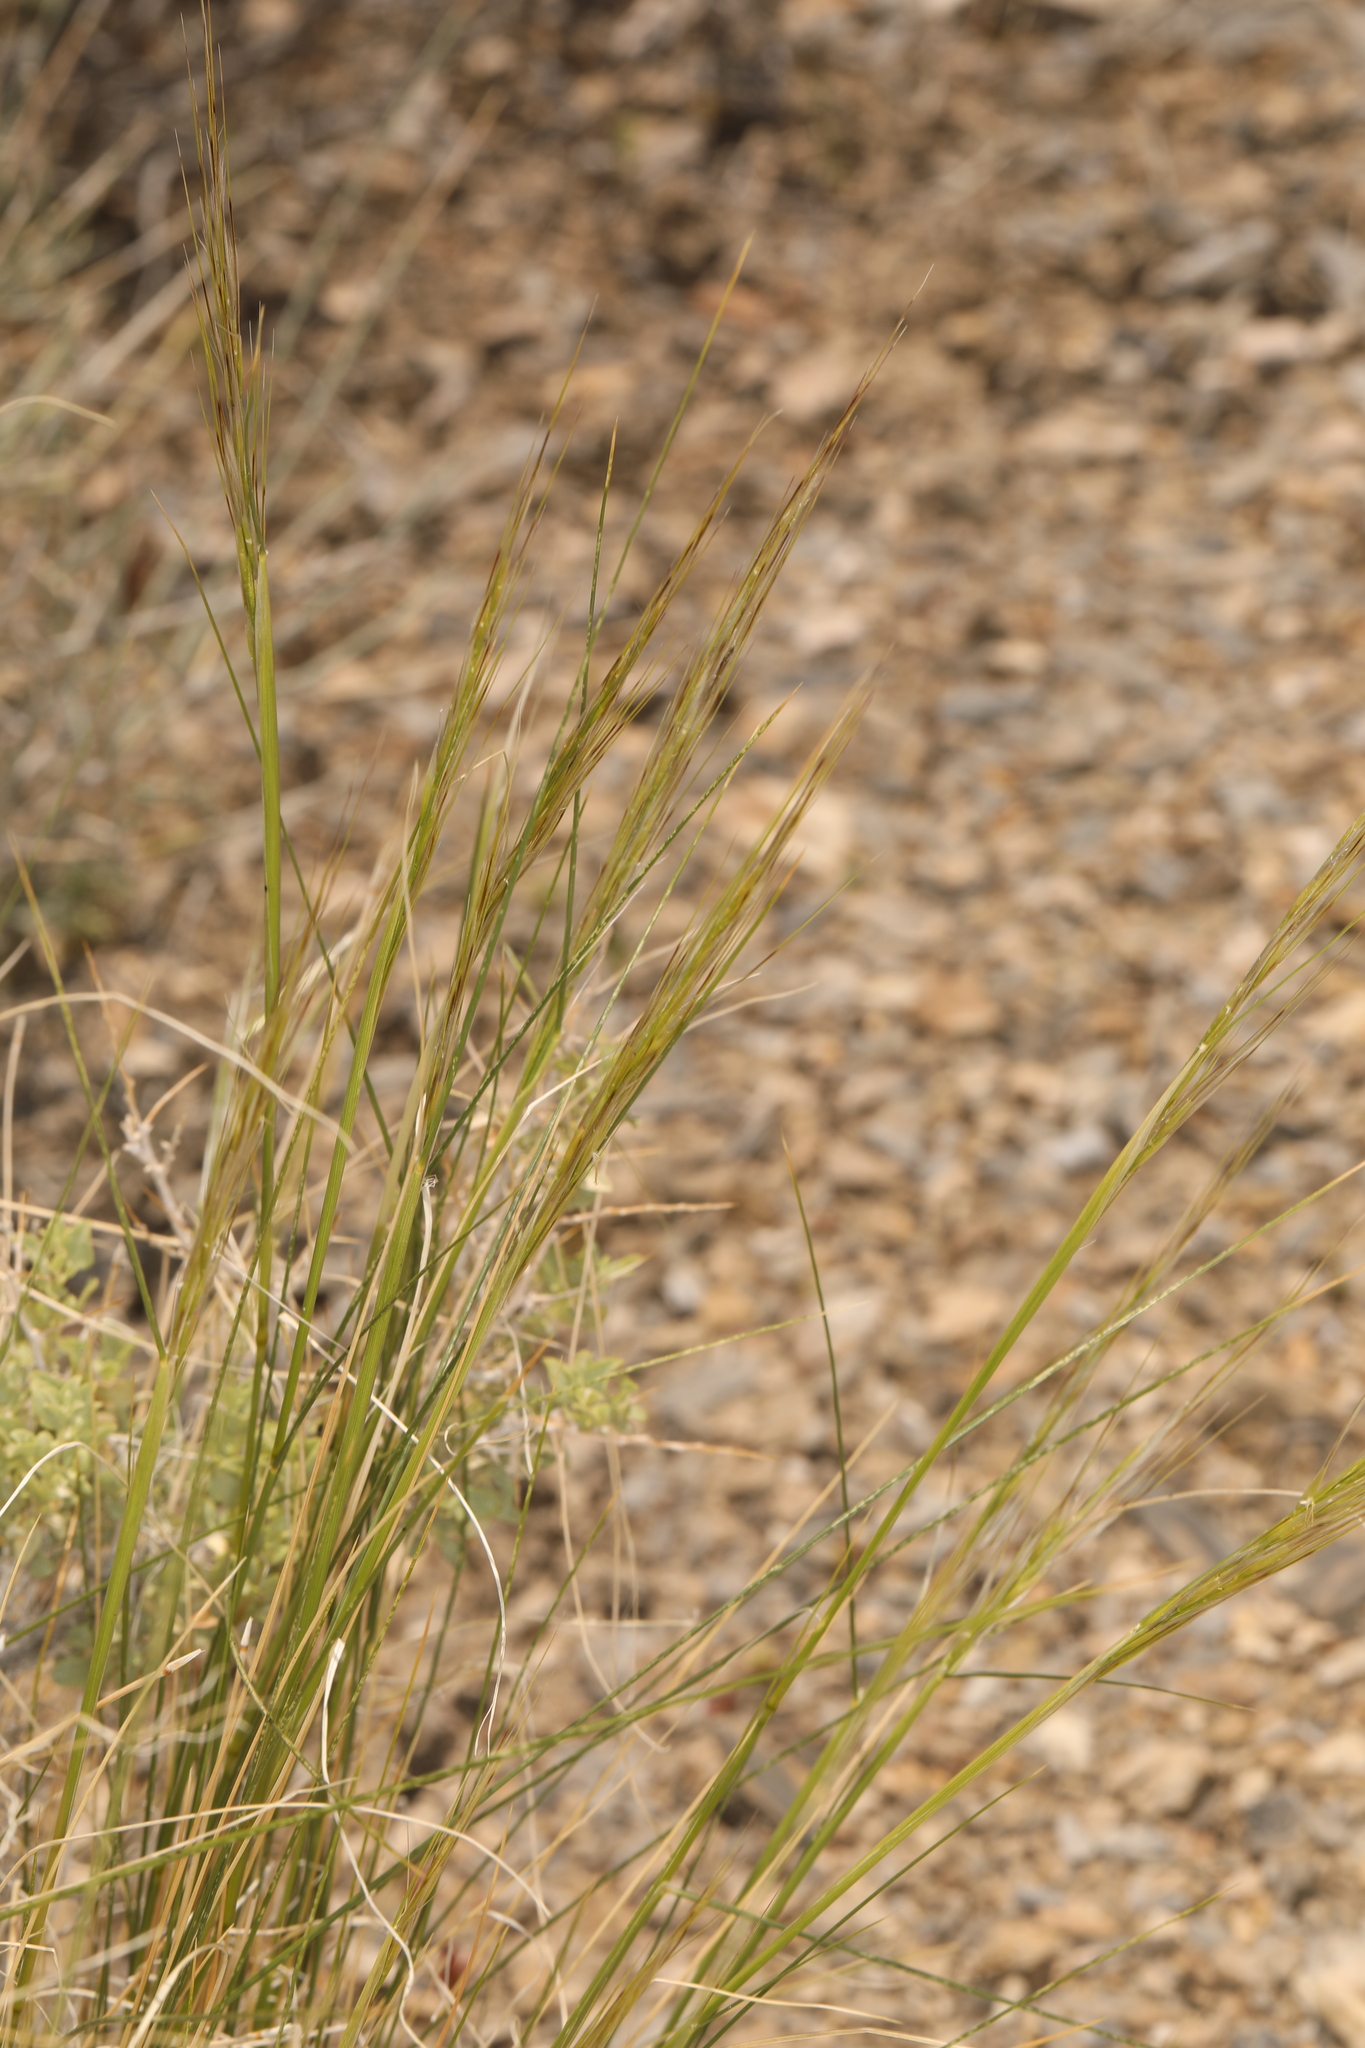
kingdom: Plantae
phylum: Tracheophyta
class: Liliopsida
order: Poales
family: Poaceae
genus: Pappostipa
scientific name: Pappostipa speciosa
